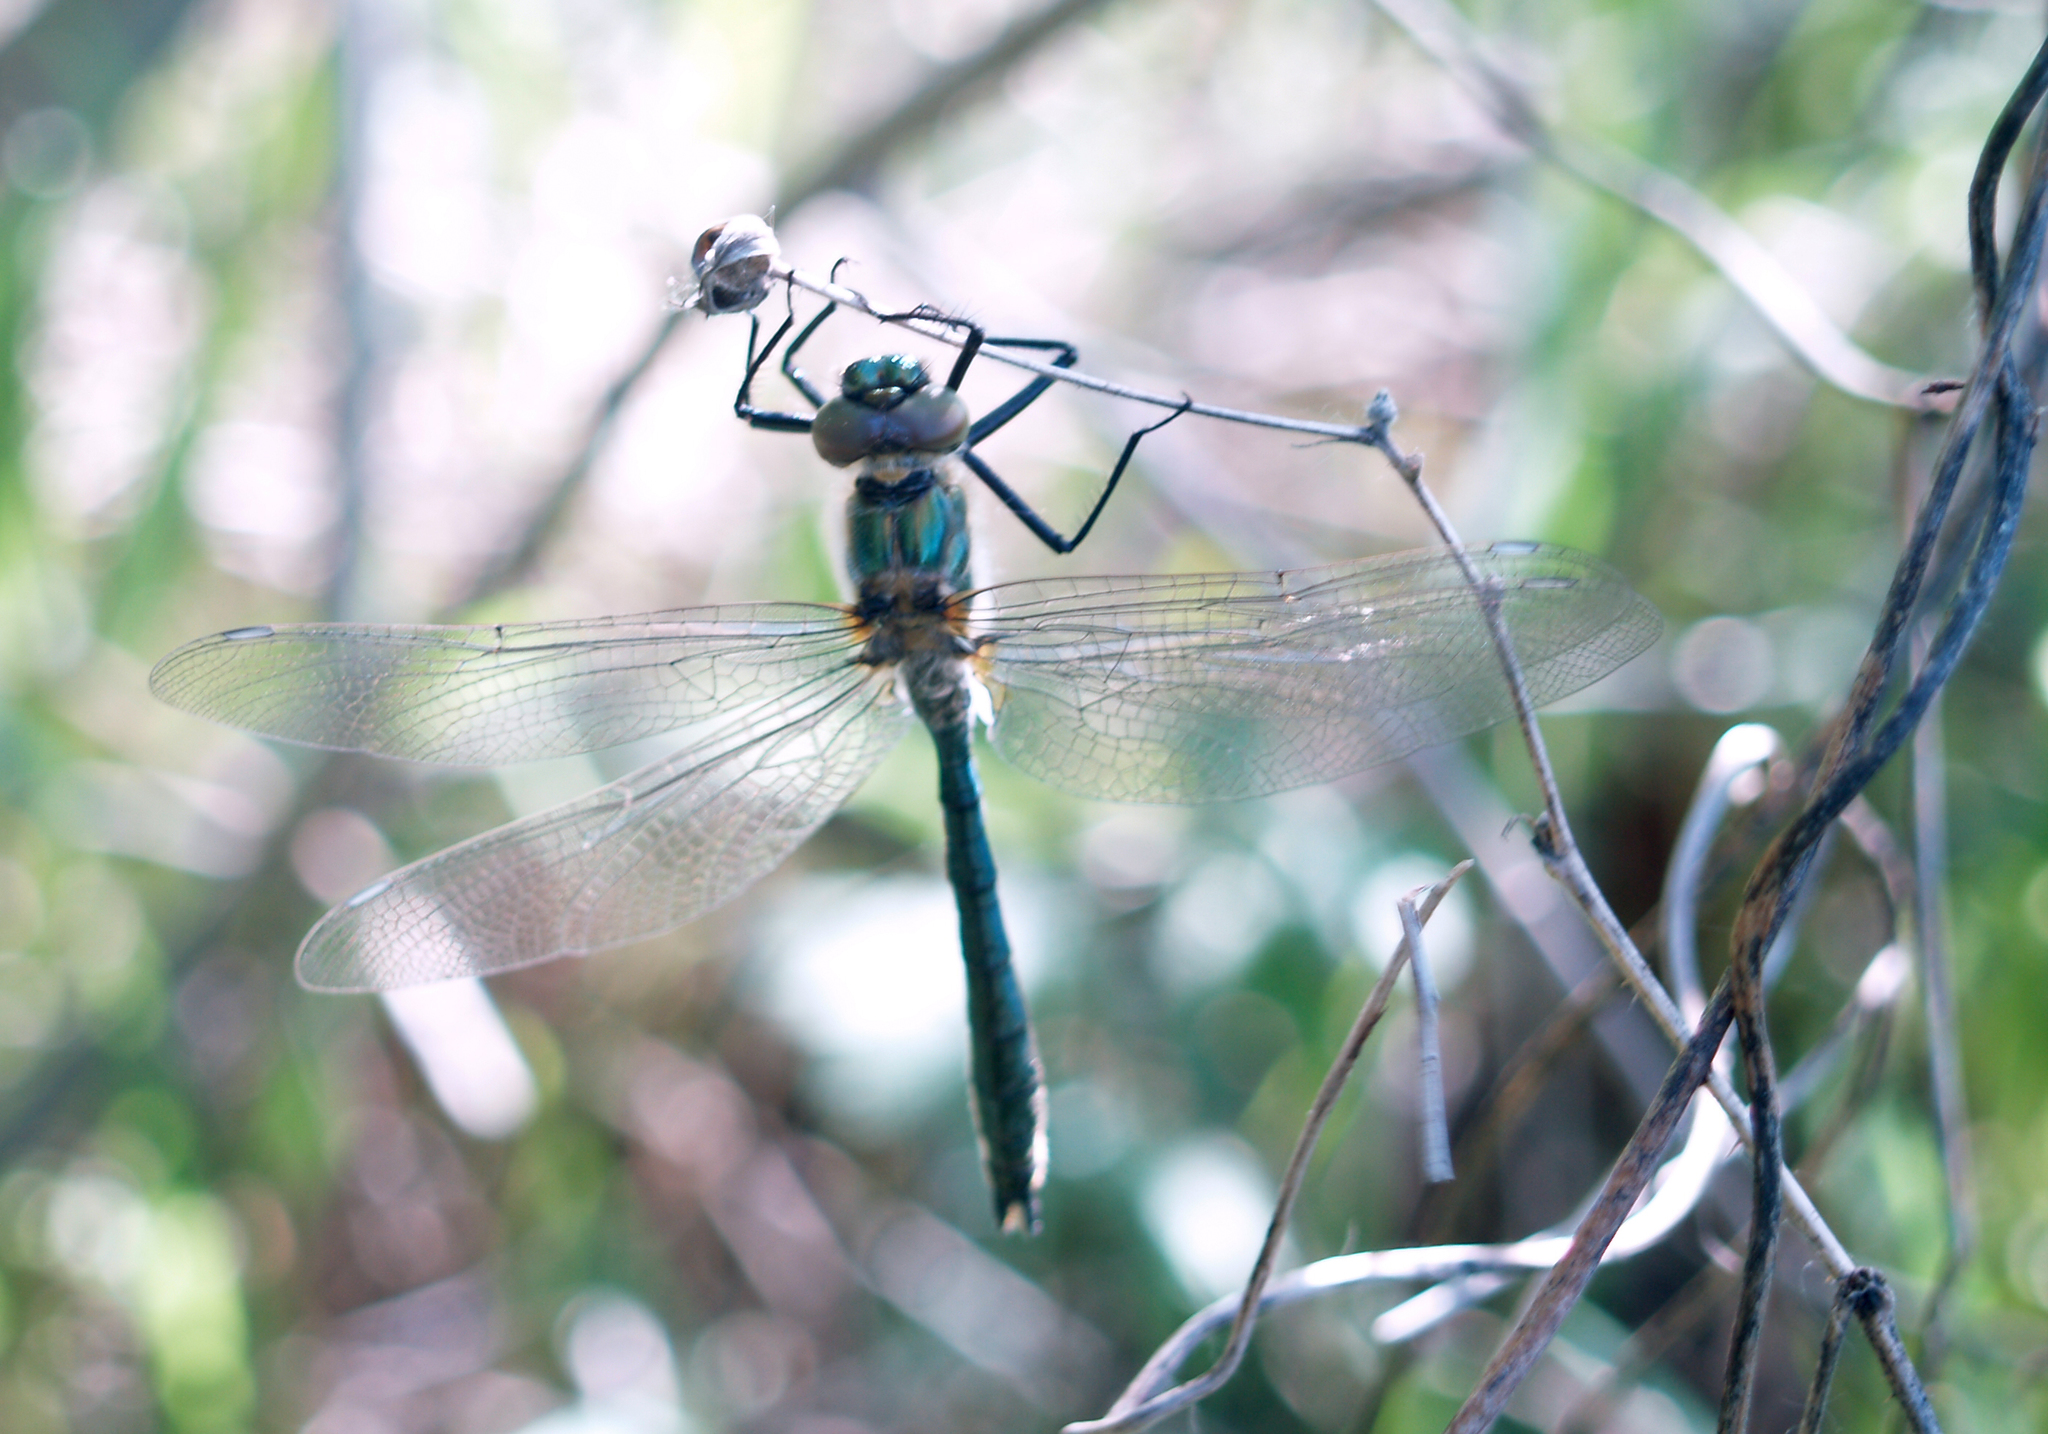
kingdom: Animalia
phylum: Arthropoda
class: Insecta
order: Odonata
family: Corduliidae
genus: Cordulia
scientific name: Cordulia aenea
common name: Downy emerald
